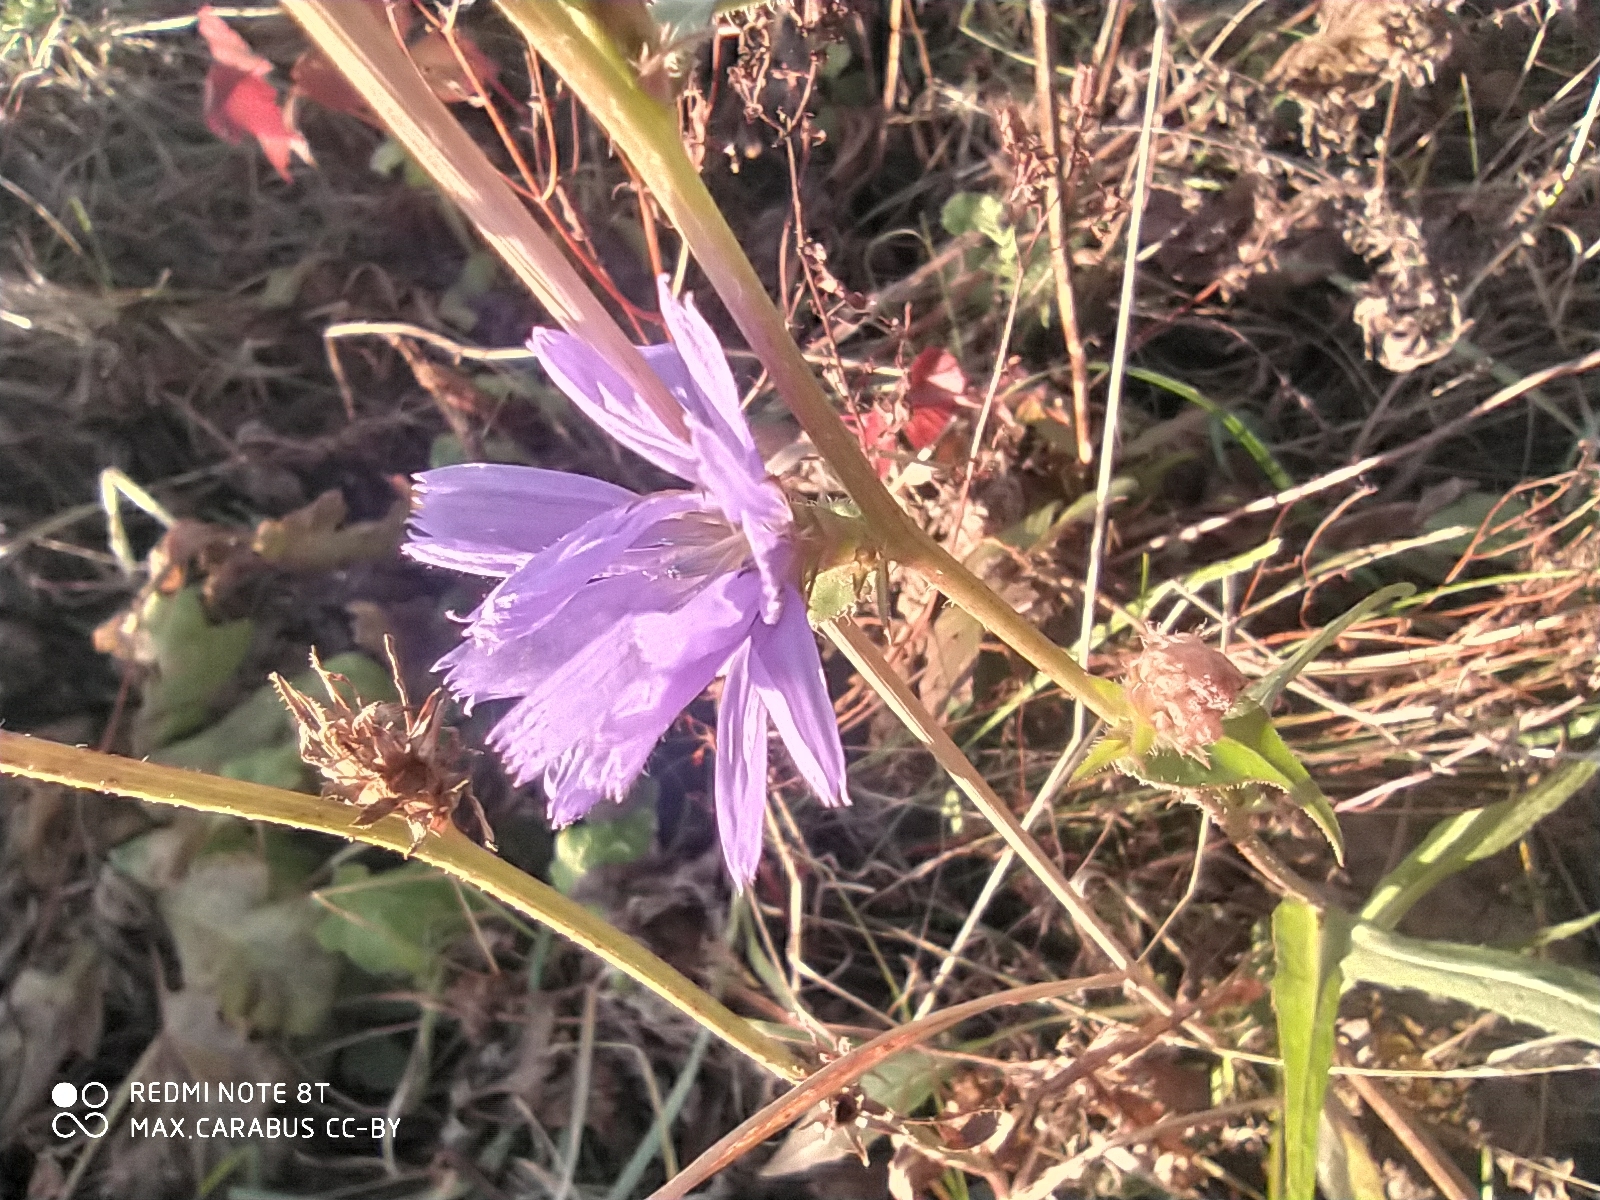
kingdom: Plantae
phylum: Tracheophyta
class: Magnoliopsida
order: Asterales
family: Asteraceae
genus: Cichorium
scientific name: Cichorium intybus
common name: Chicory
